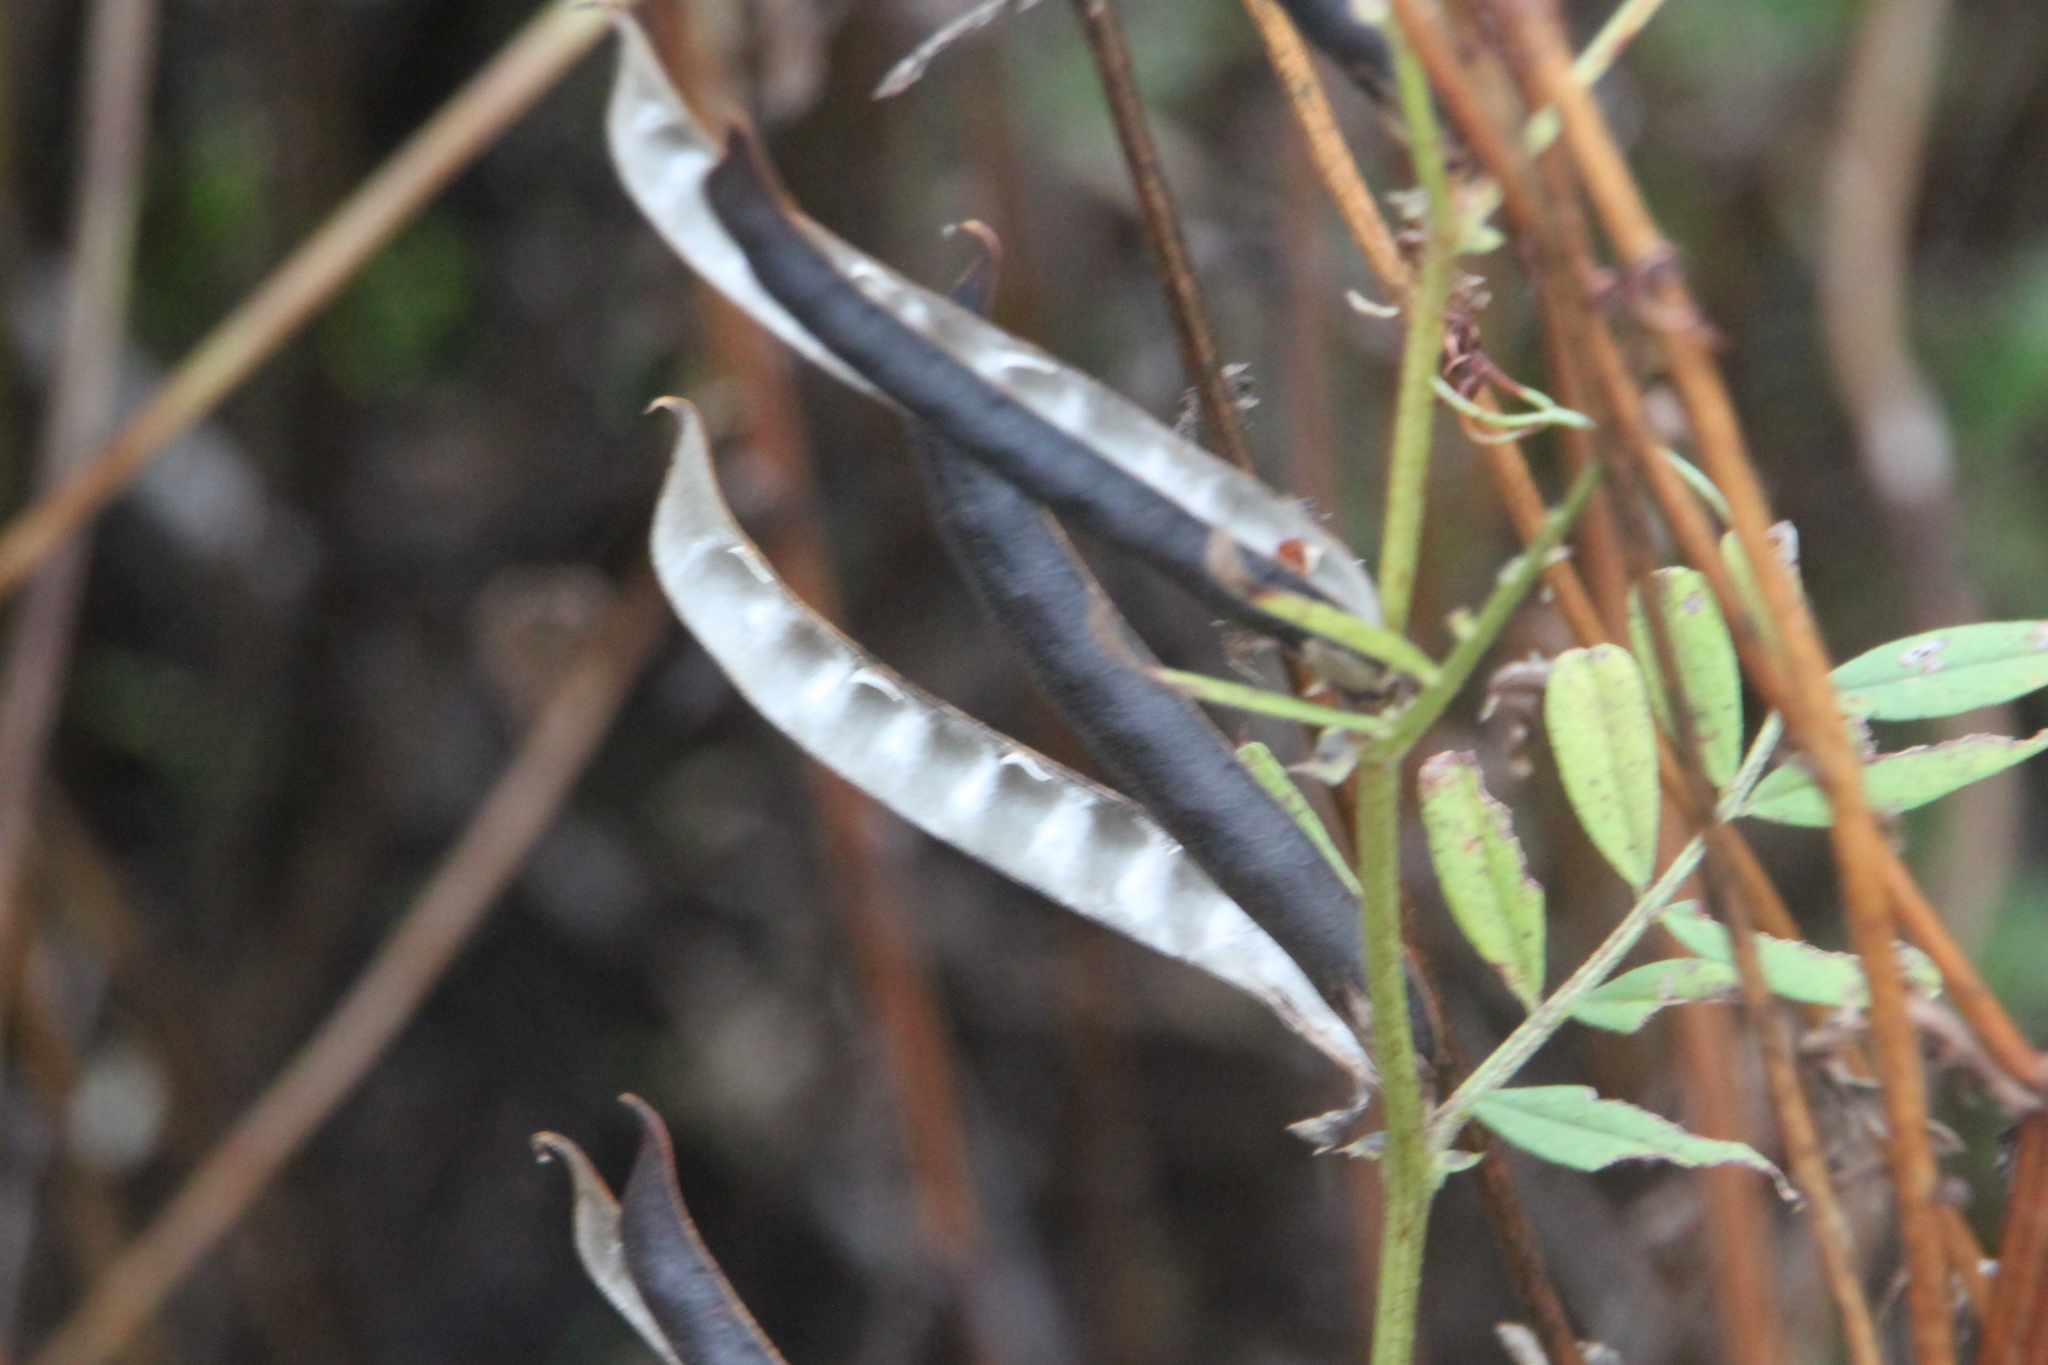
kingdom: Plantae
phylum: Tracheophyta
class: Magnoliopsida
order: Fabales
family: Fabaceae
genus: Vicia
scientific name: Vicia sepium
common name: Bush vetch
